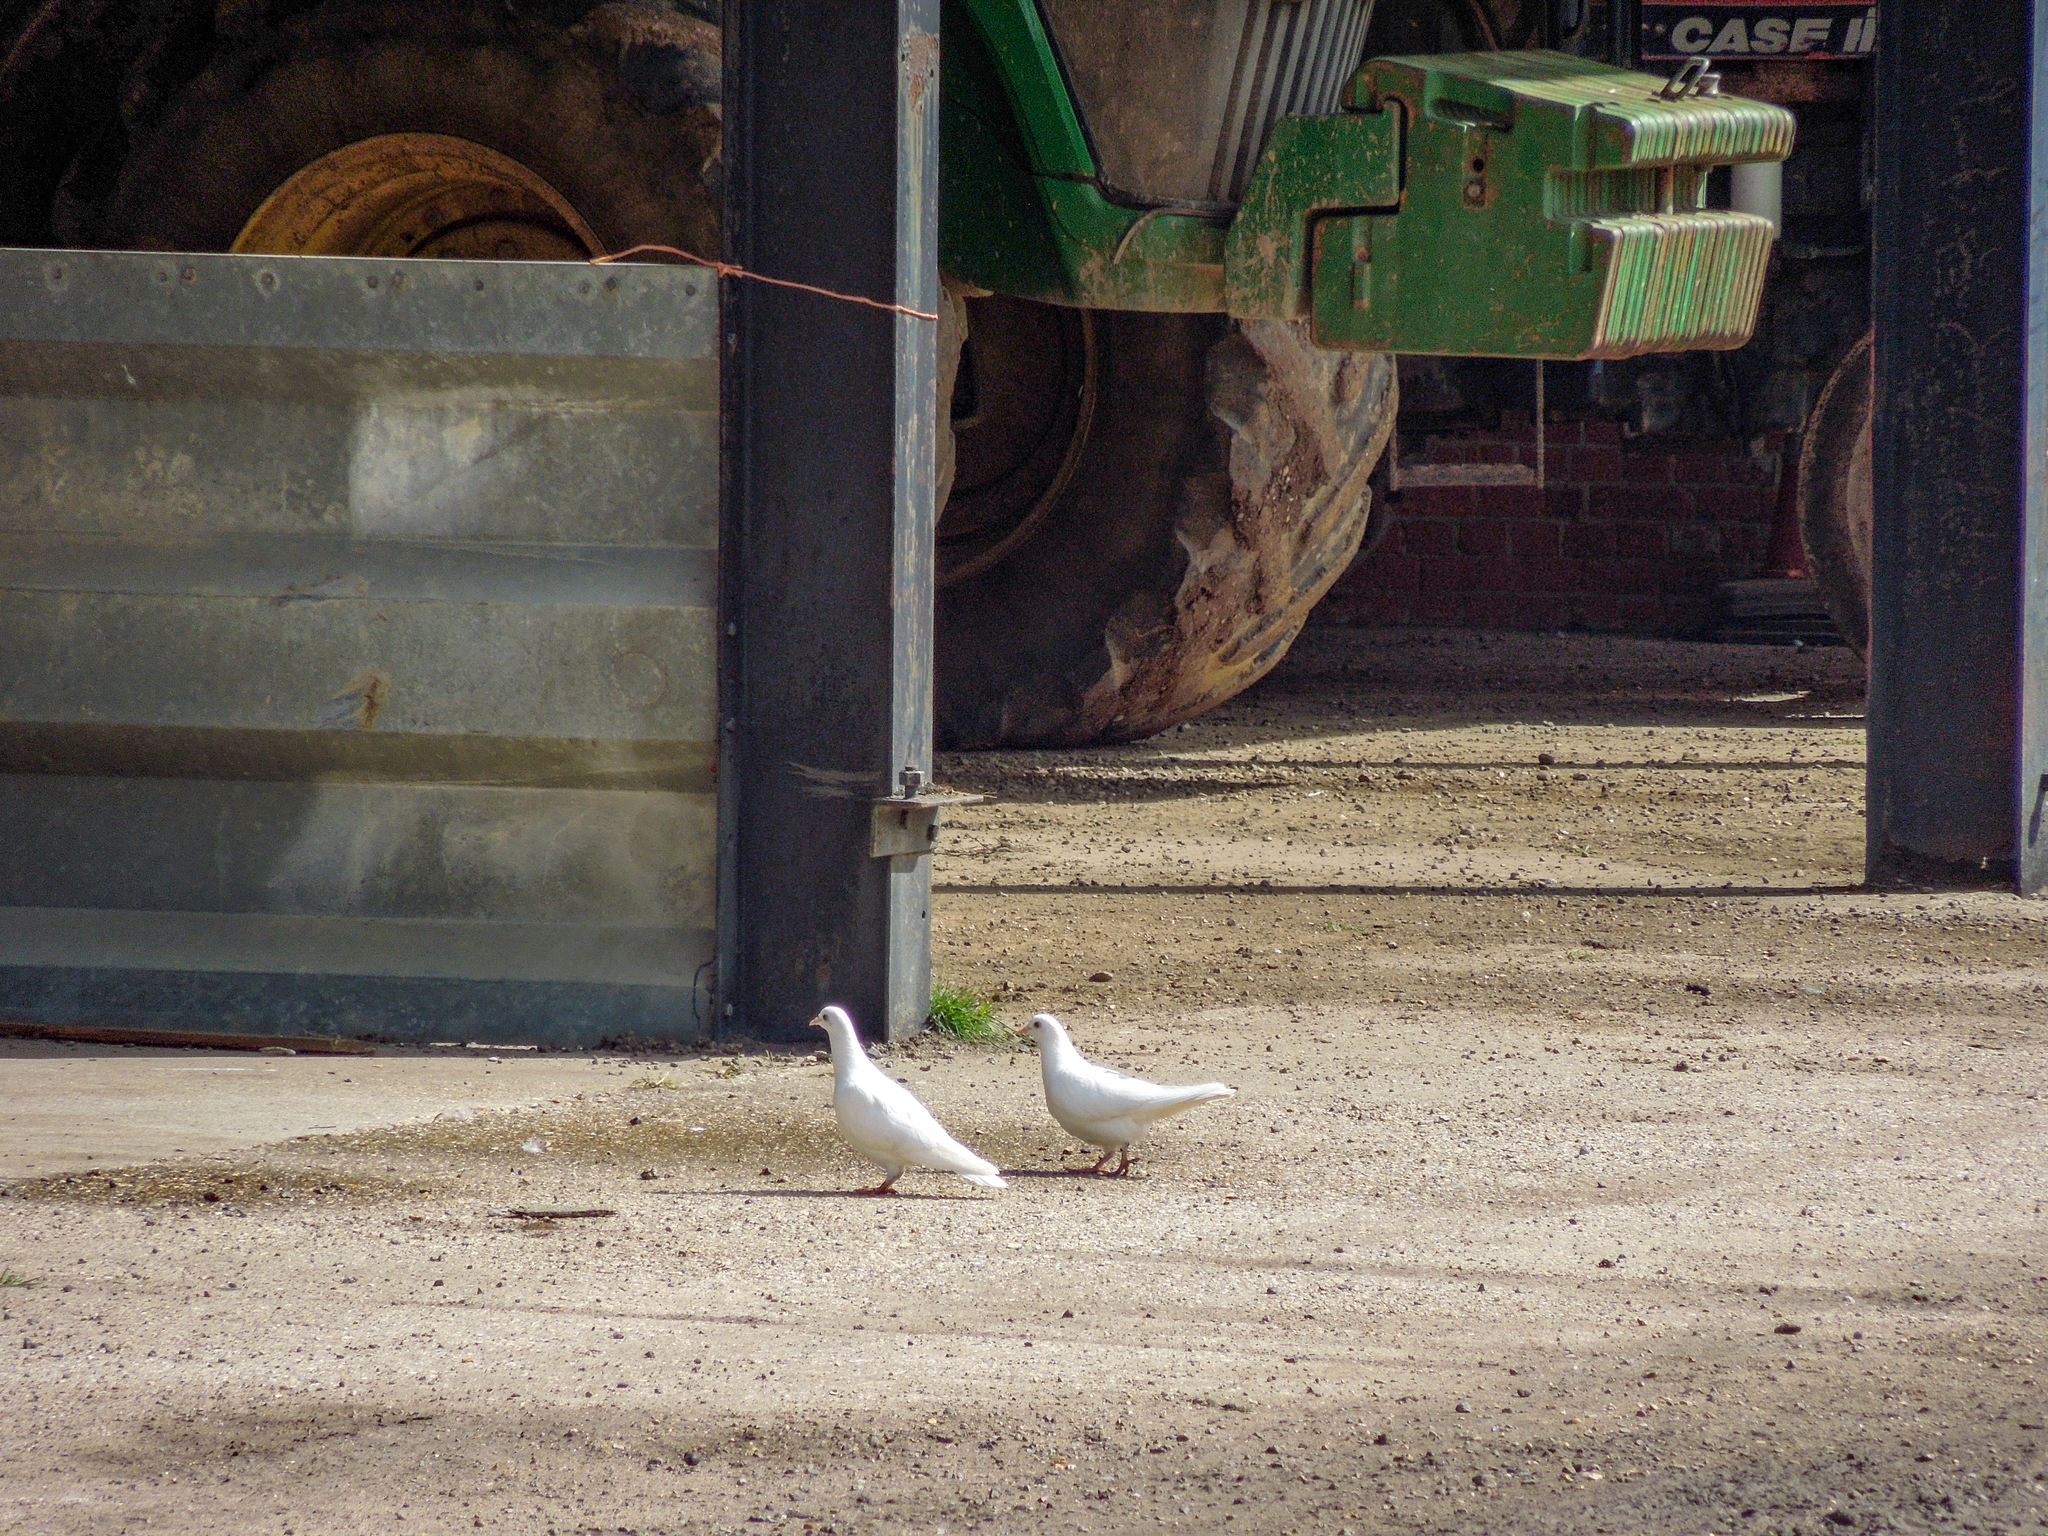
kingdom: Animalia
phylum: Chordata
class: Aves
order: Columbiformes
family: Columbidae
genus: Columba
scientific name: Columba livia
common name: Rock pigeon
